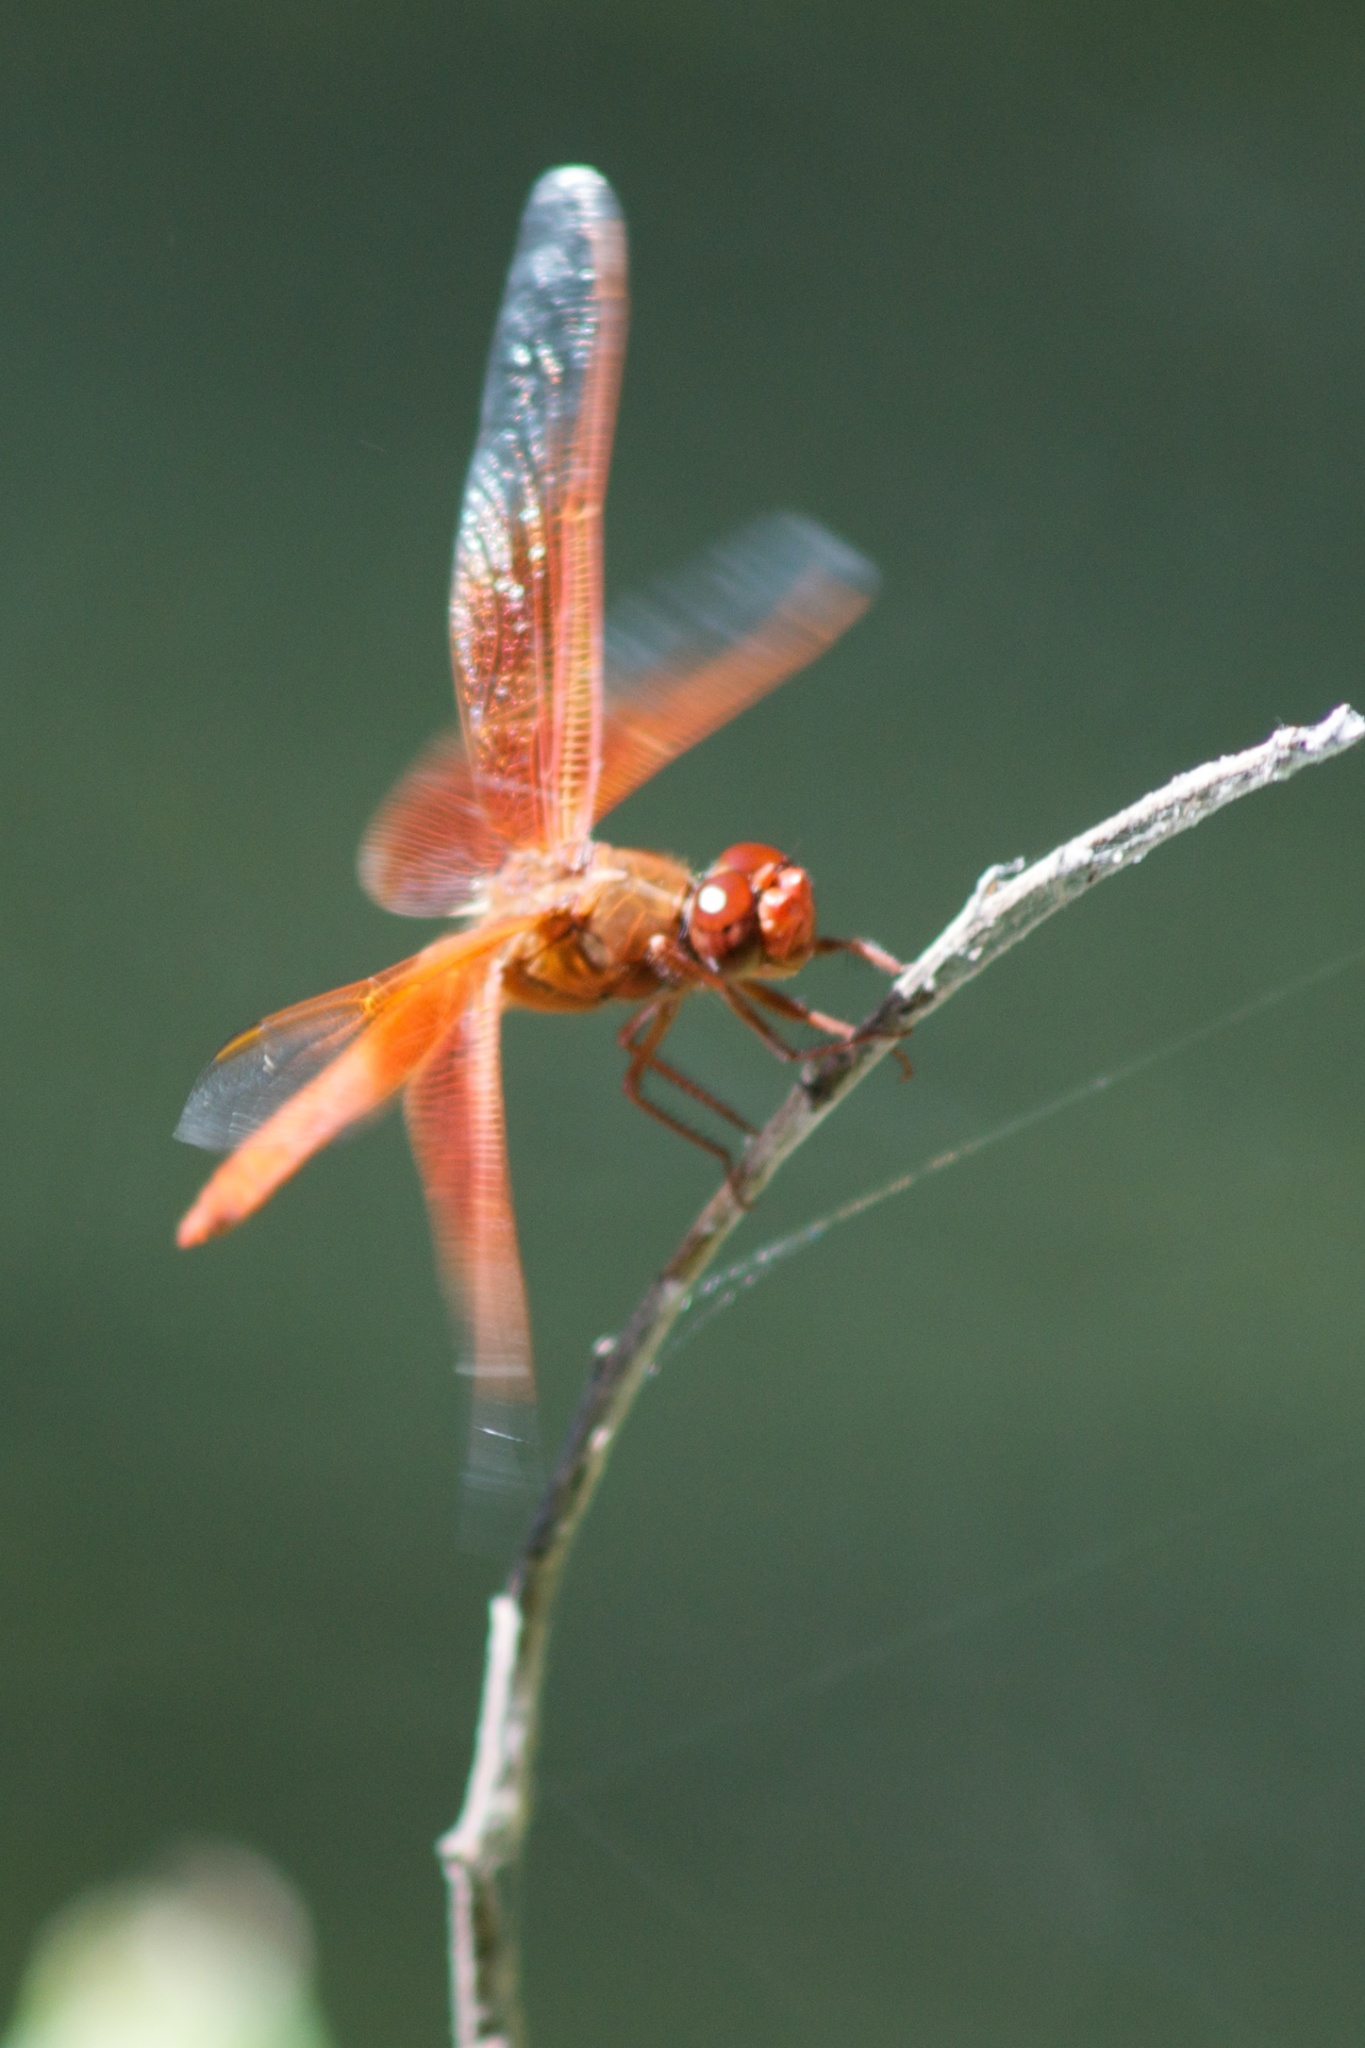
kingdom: Animalia
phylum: Arthropoda
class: Insecta
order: Odonata
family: Libellulidae
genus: Libellula
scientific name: Libellula saturata
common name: Flame skimmer
